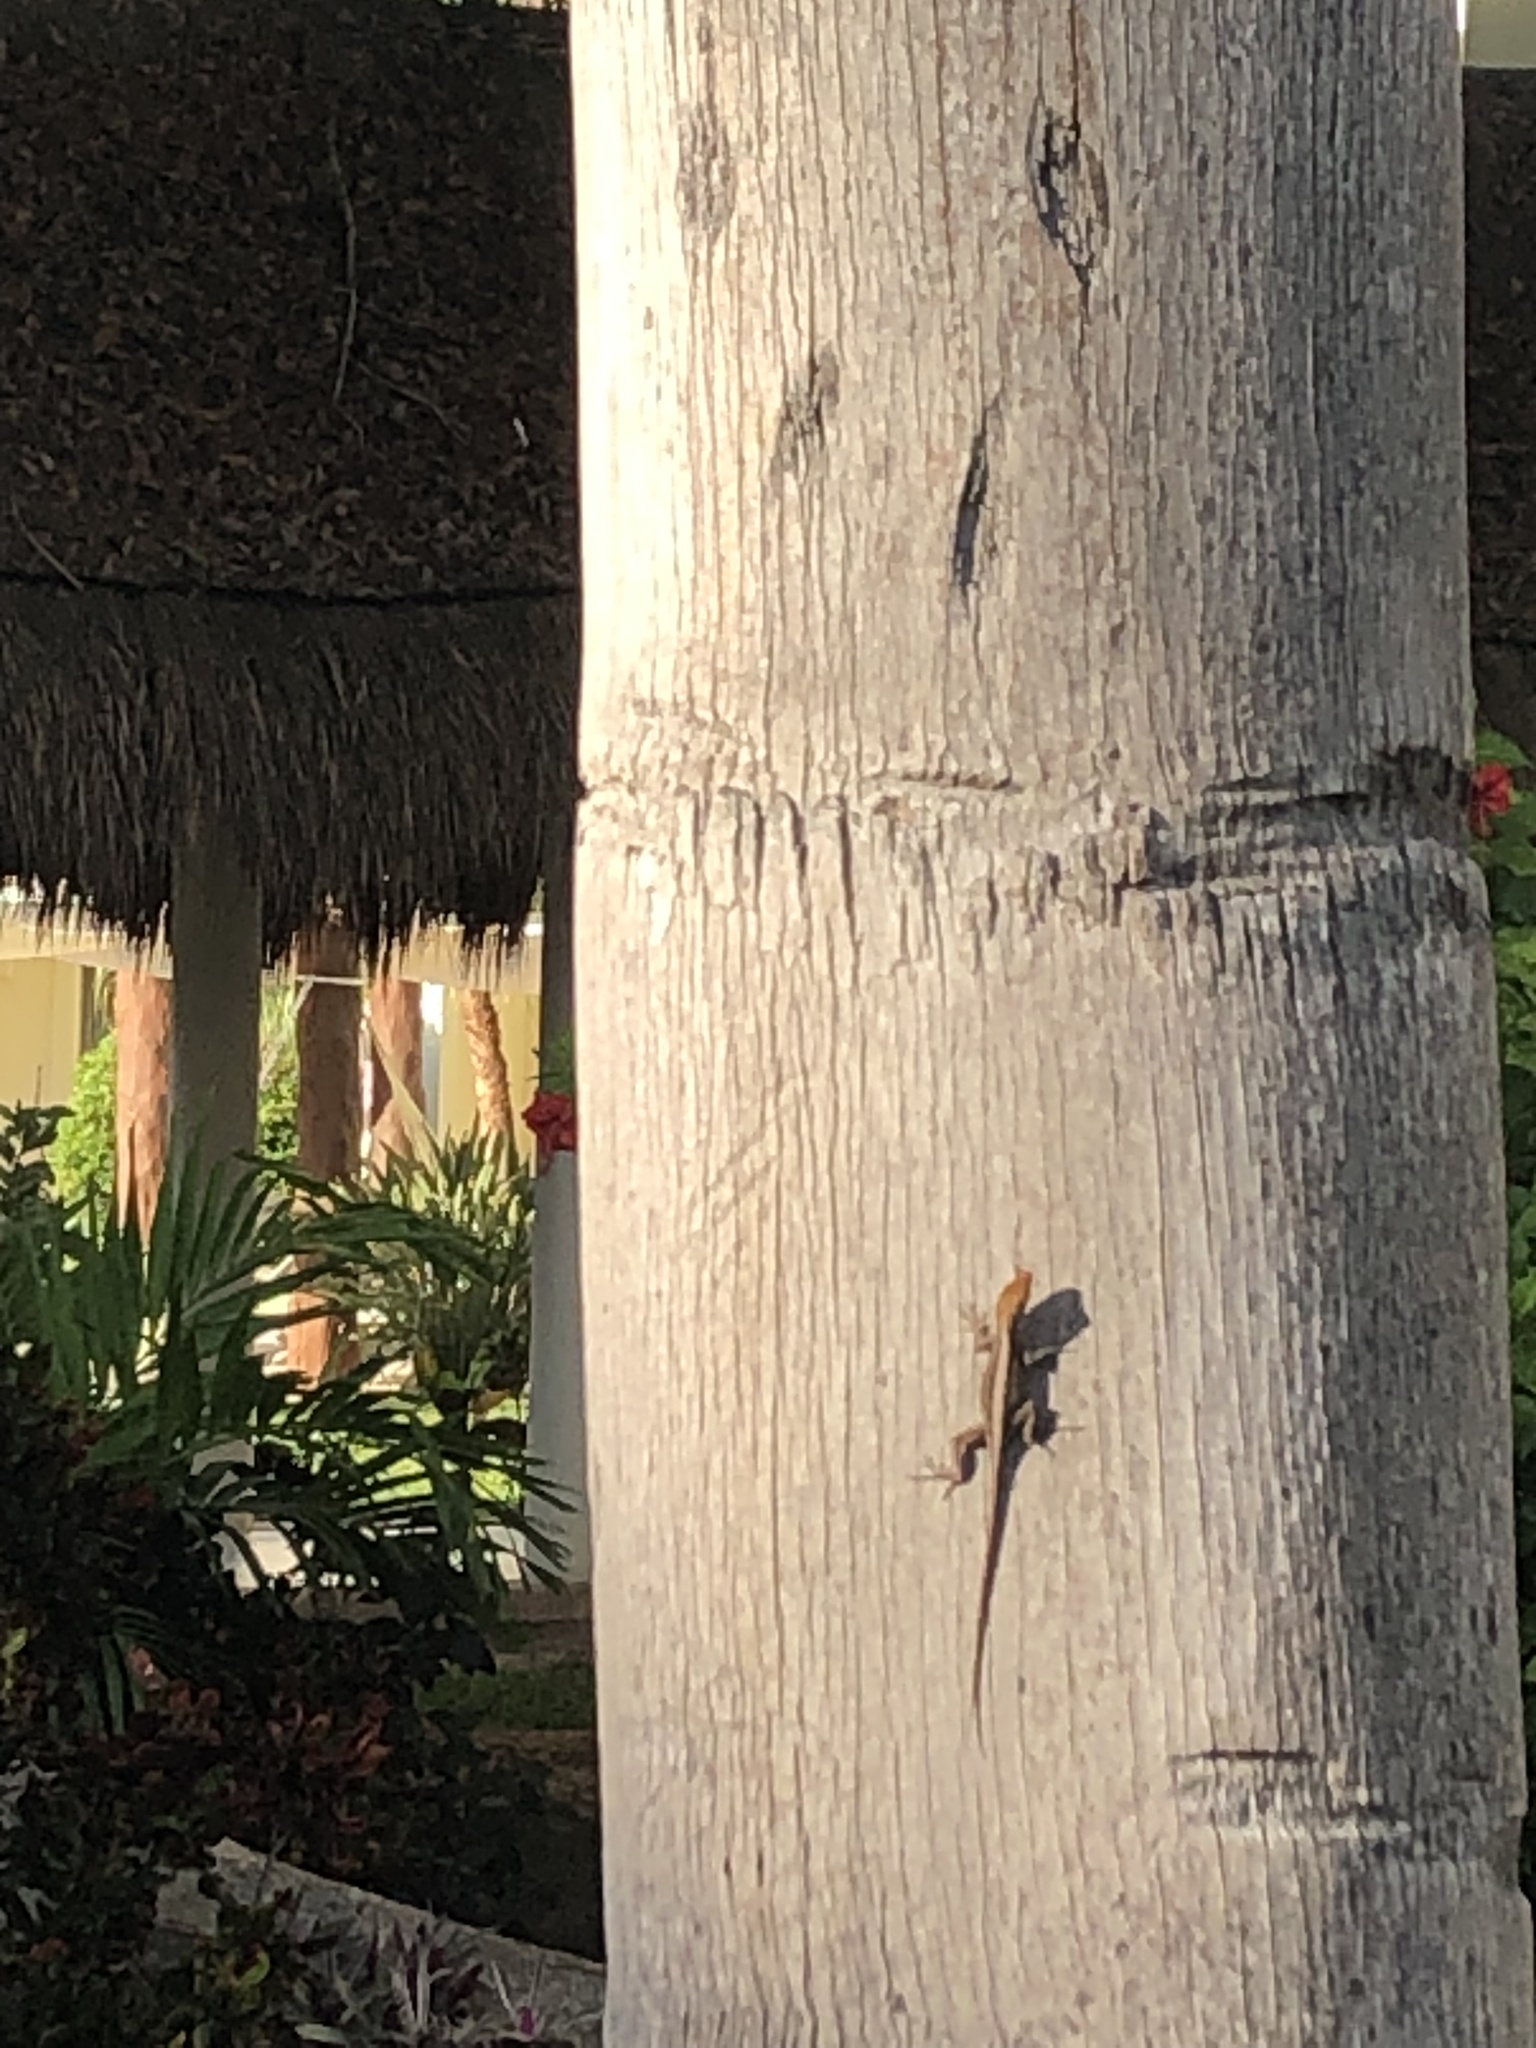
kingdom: Animalia
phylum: Chordata
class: Squamata
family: Dactyloidae
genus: Anolis
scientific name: Anolis sagrei
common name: Brown anole
